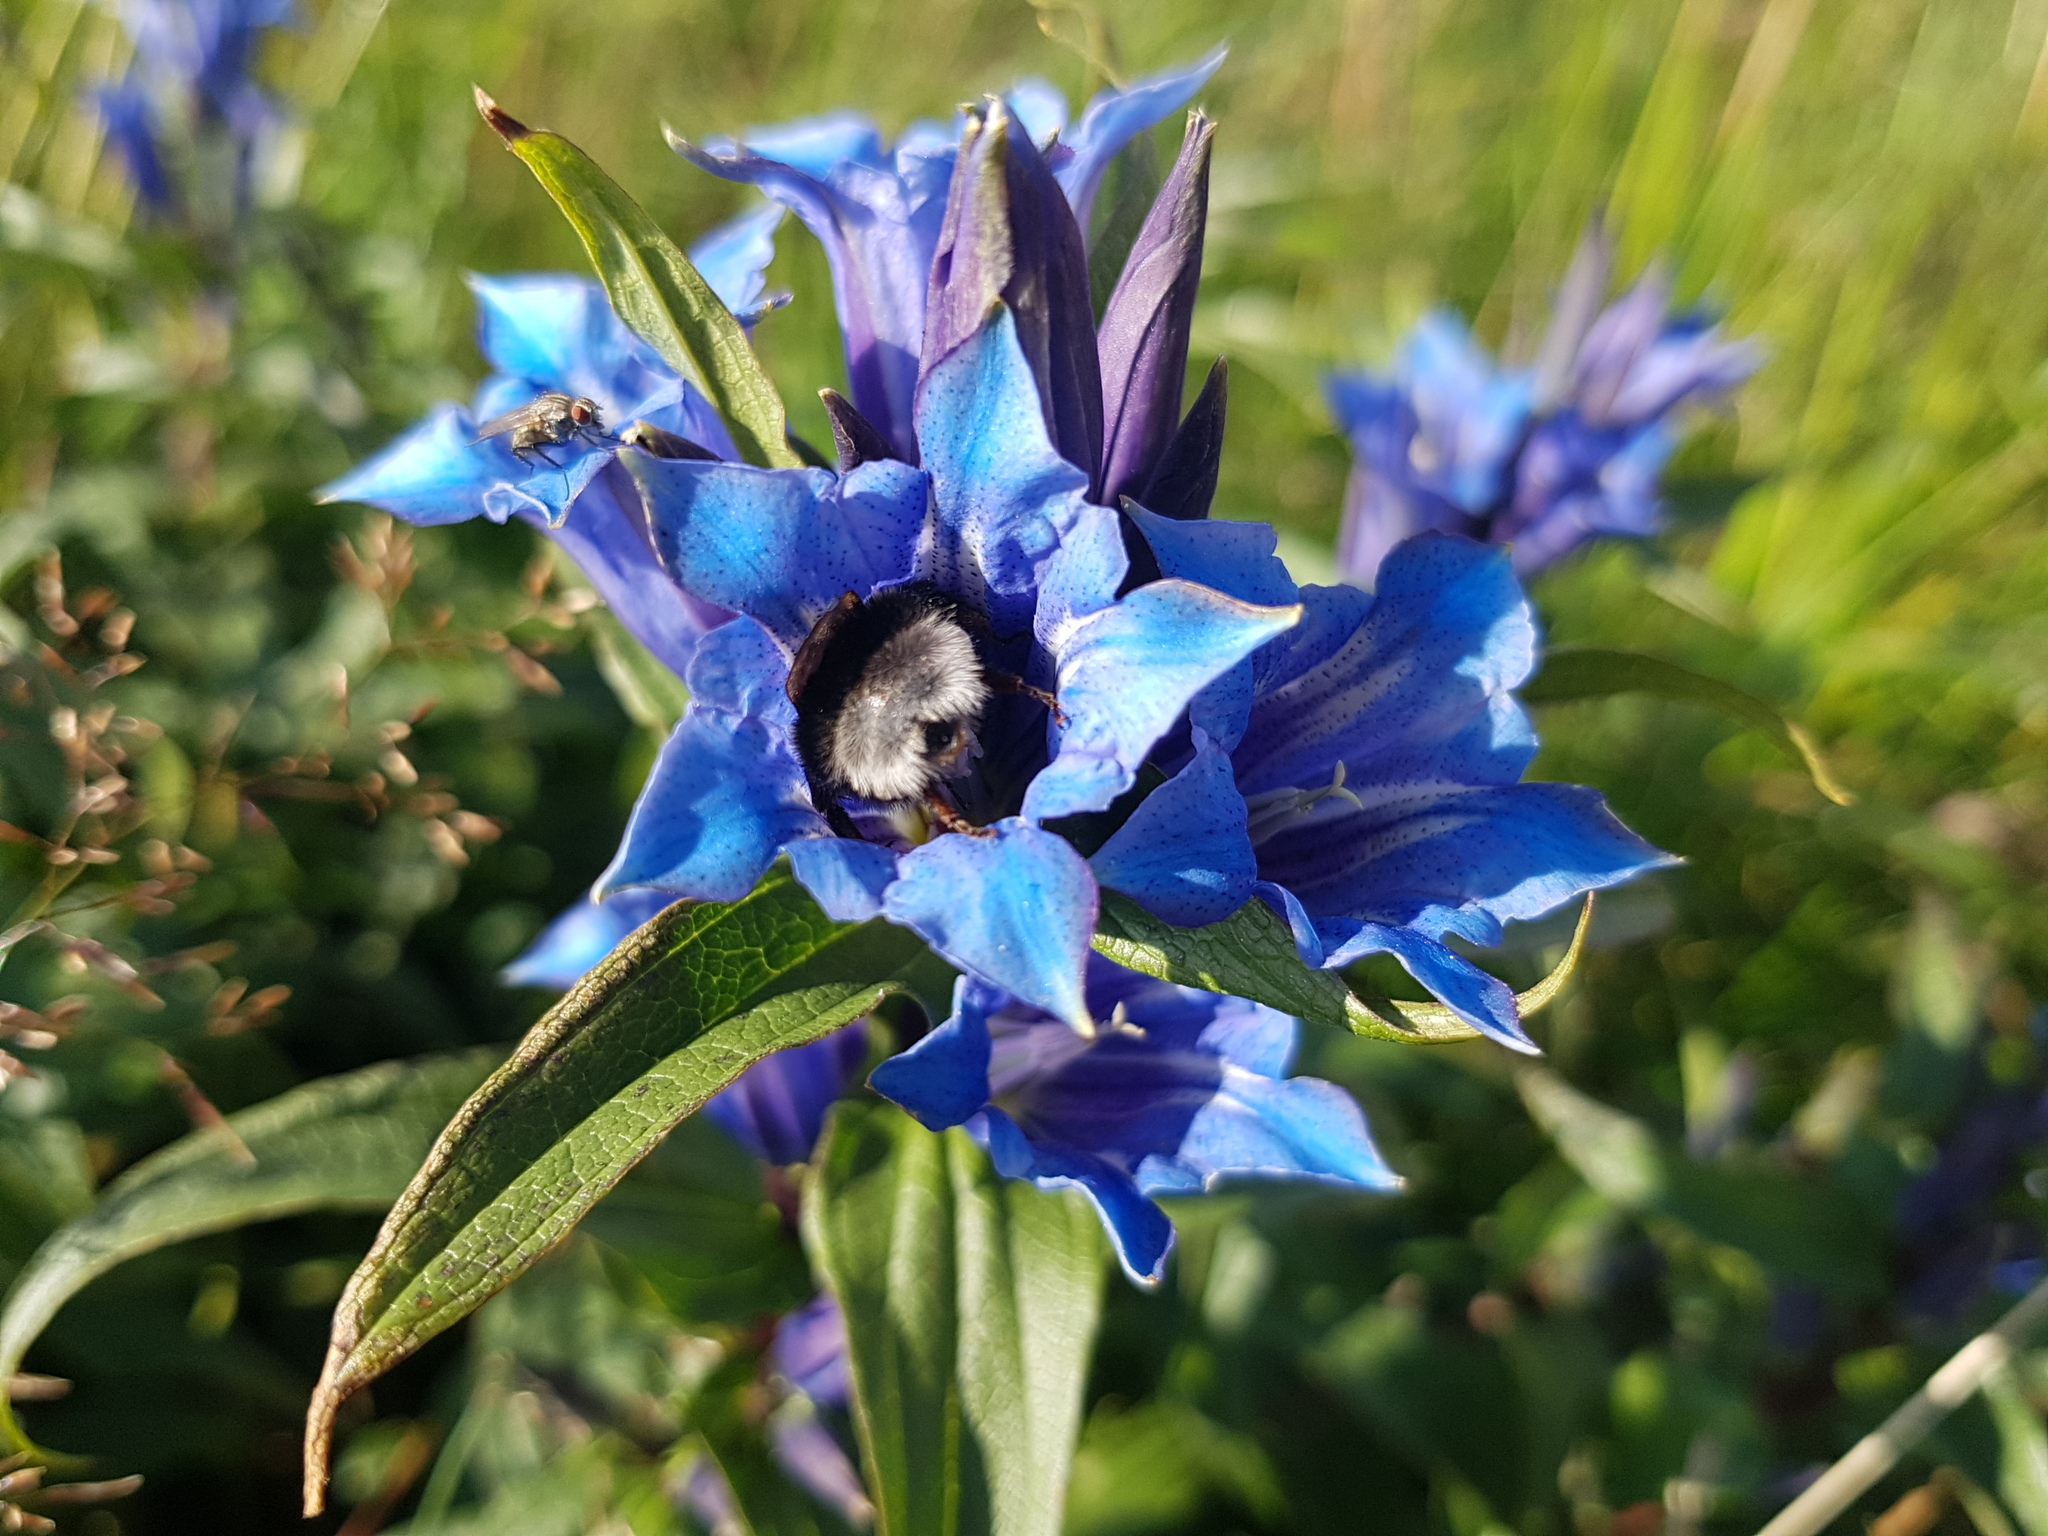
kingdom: Plantae
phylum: Tracheophyta
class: Magnoliopsida
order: Gentianales
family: Gentianaceae
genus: Gentiana
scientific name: Gentiana asclepiadea
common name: Willow gentian
